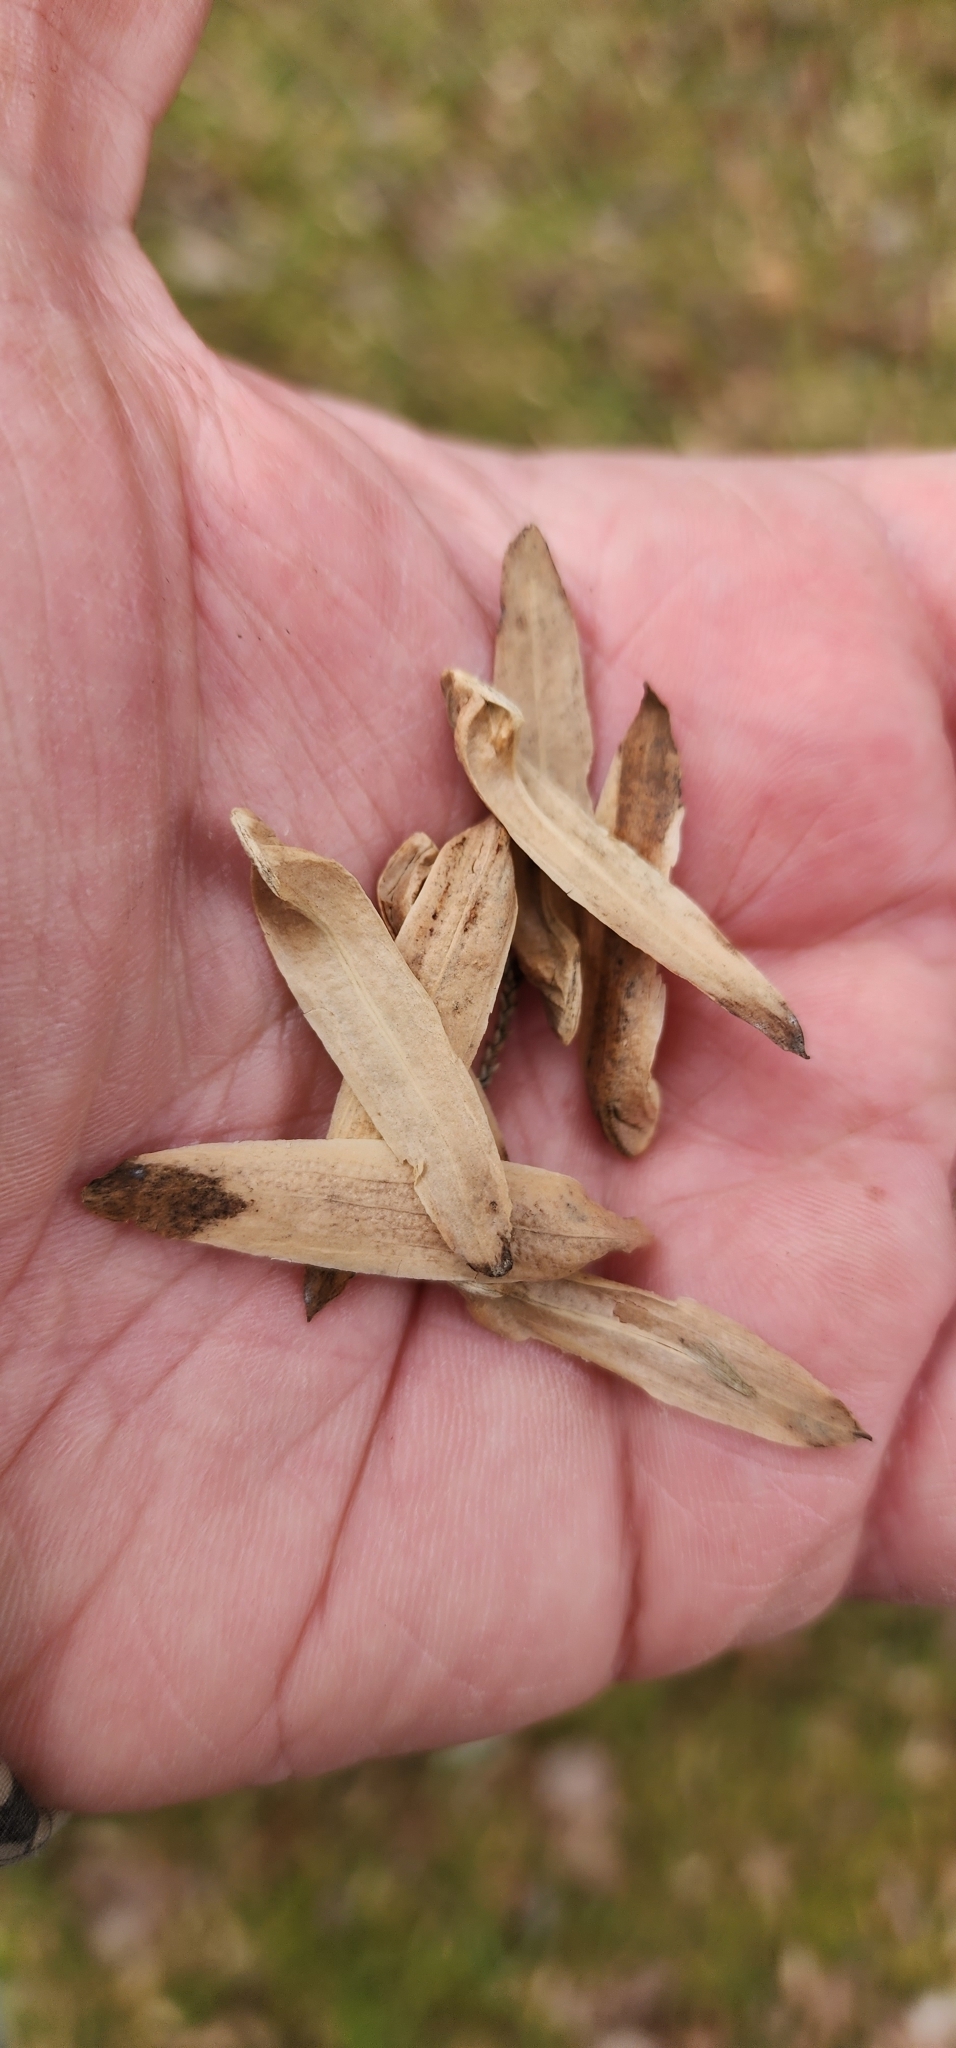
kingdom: Plantae
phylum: Tracheophyta
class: Magnoliopsida
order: Magnoliales
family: Magnoliaceae
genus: Liriodendron
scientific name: Liriodendron tulipifera
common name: Tulip tree
